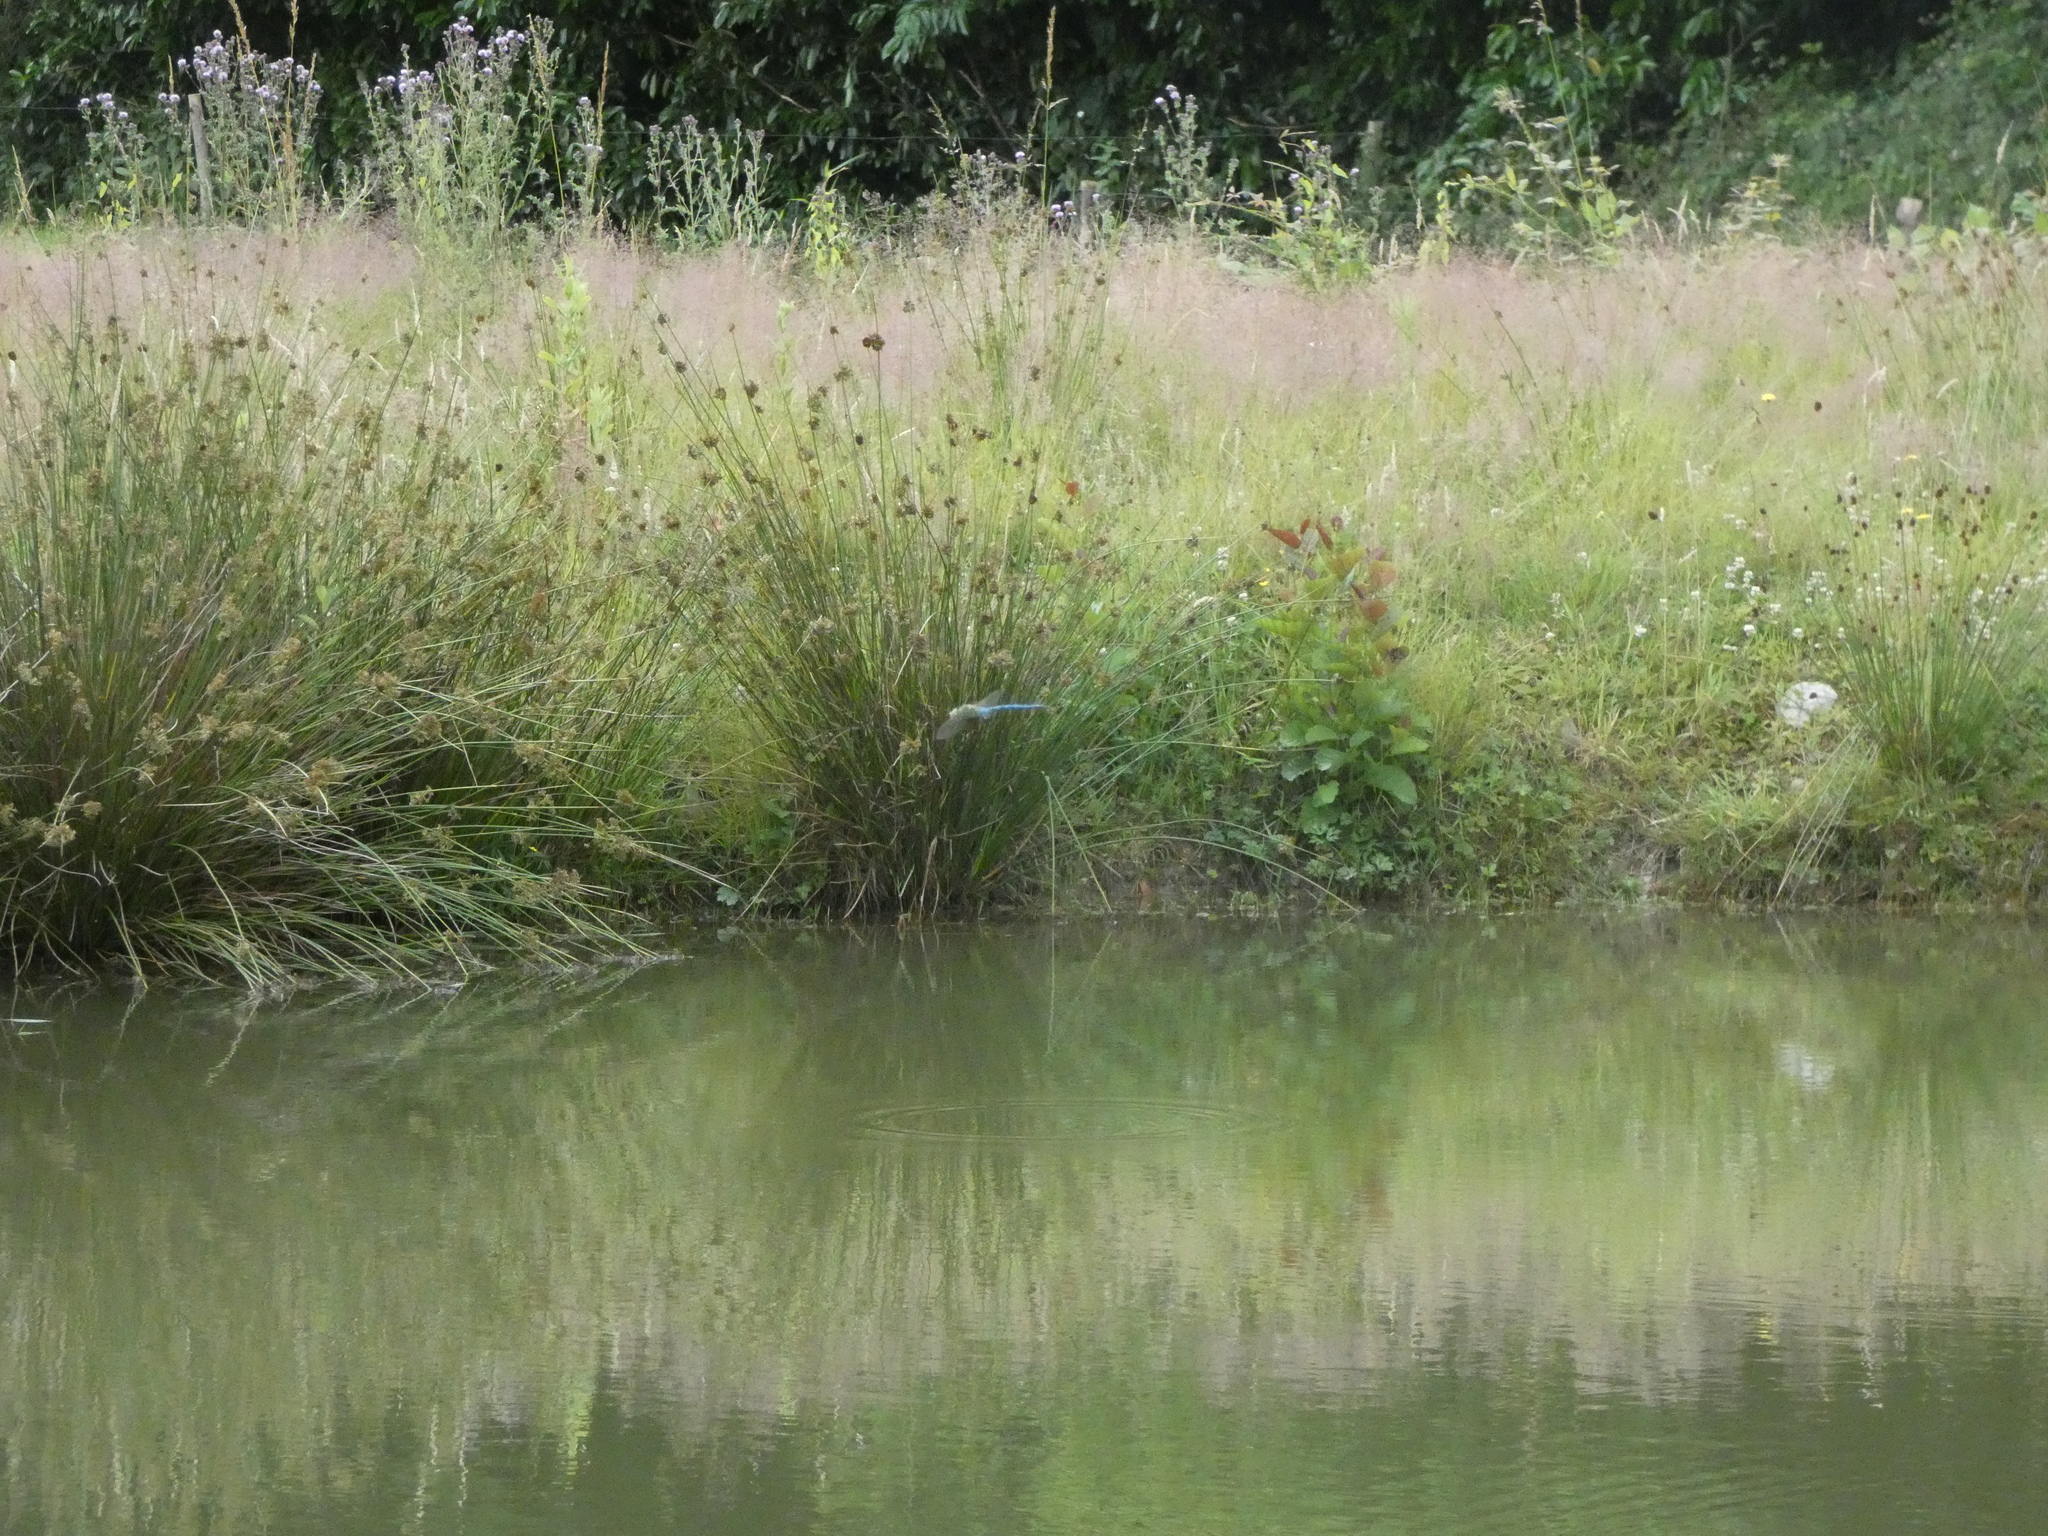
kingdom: Animalia
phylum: Arthropoda
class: Insecta
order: Odonata
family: Aeshnidae
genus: Anax
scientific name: Anax imperator
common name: Emperor dragonfly
